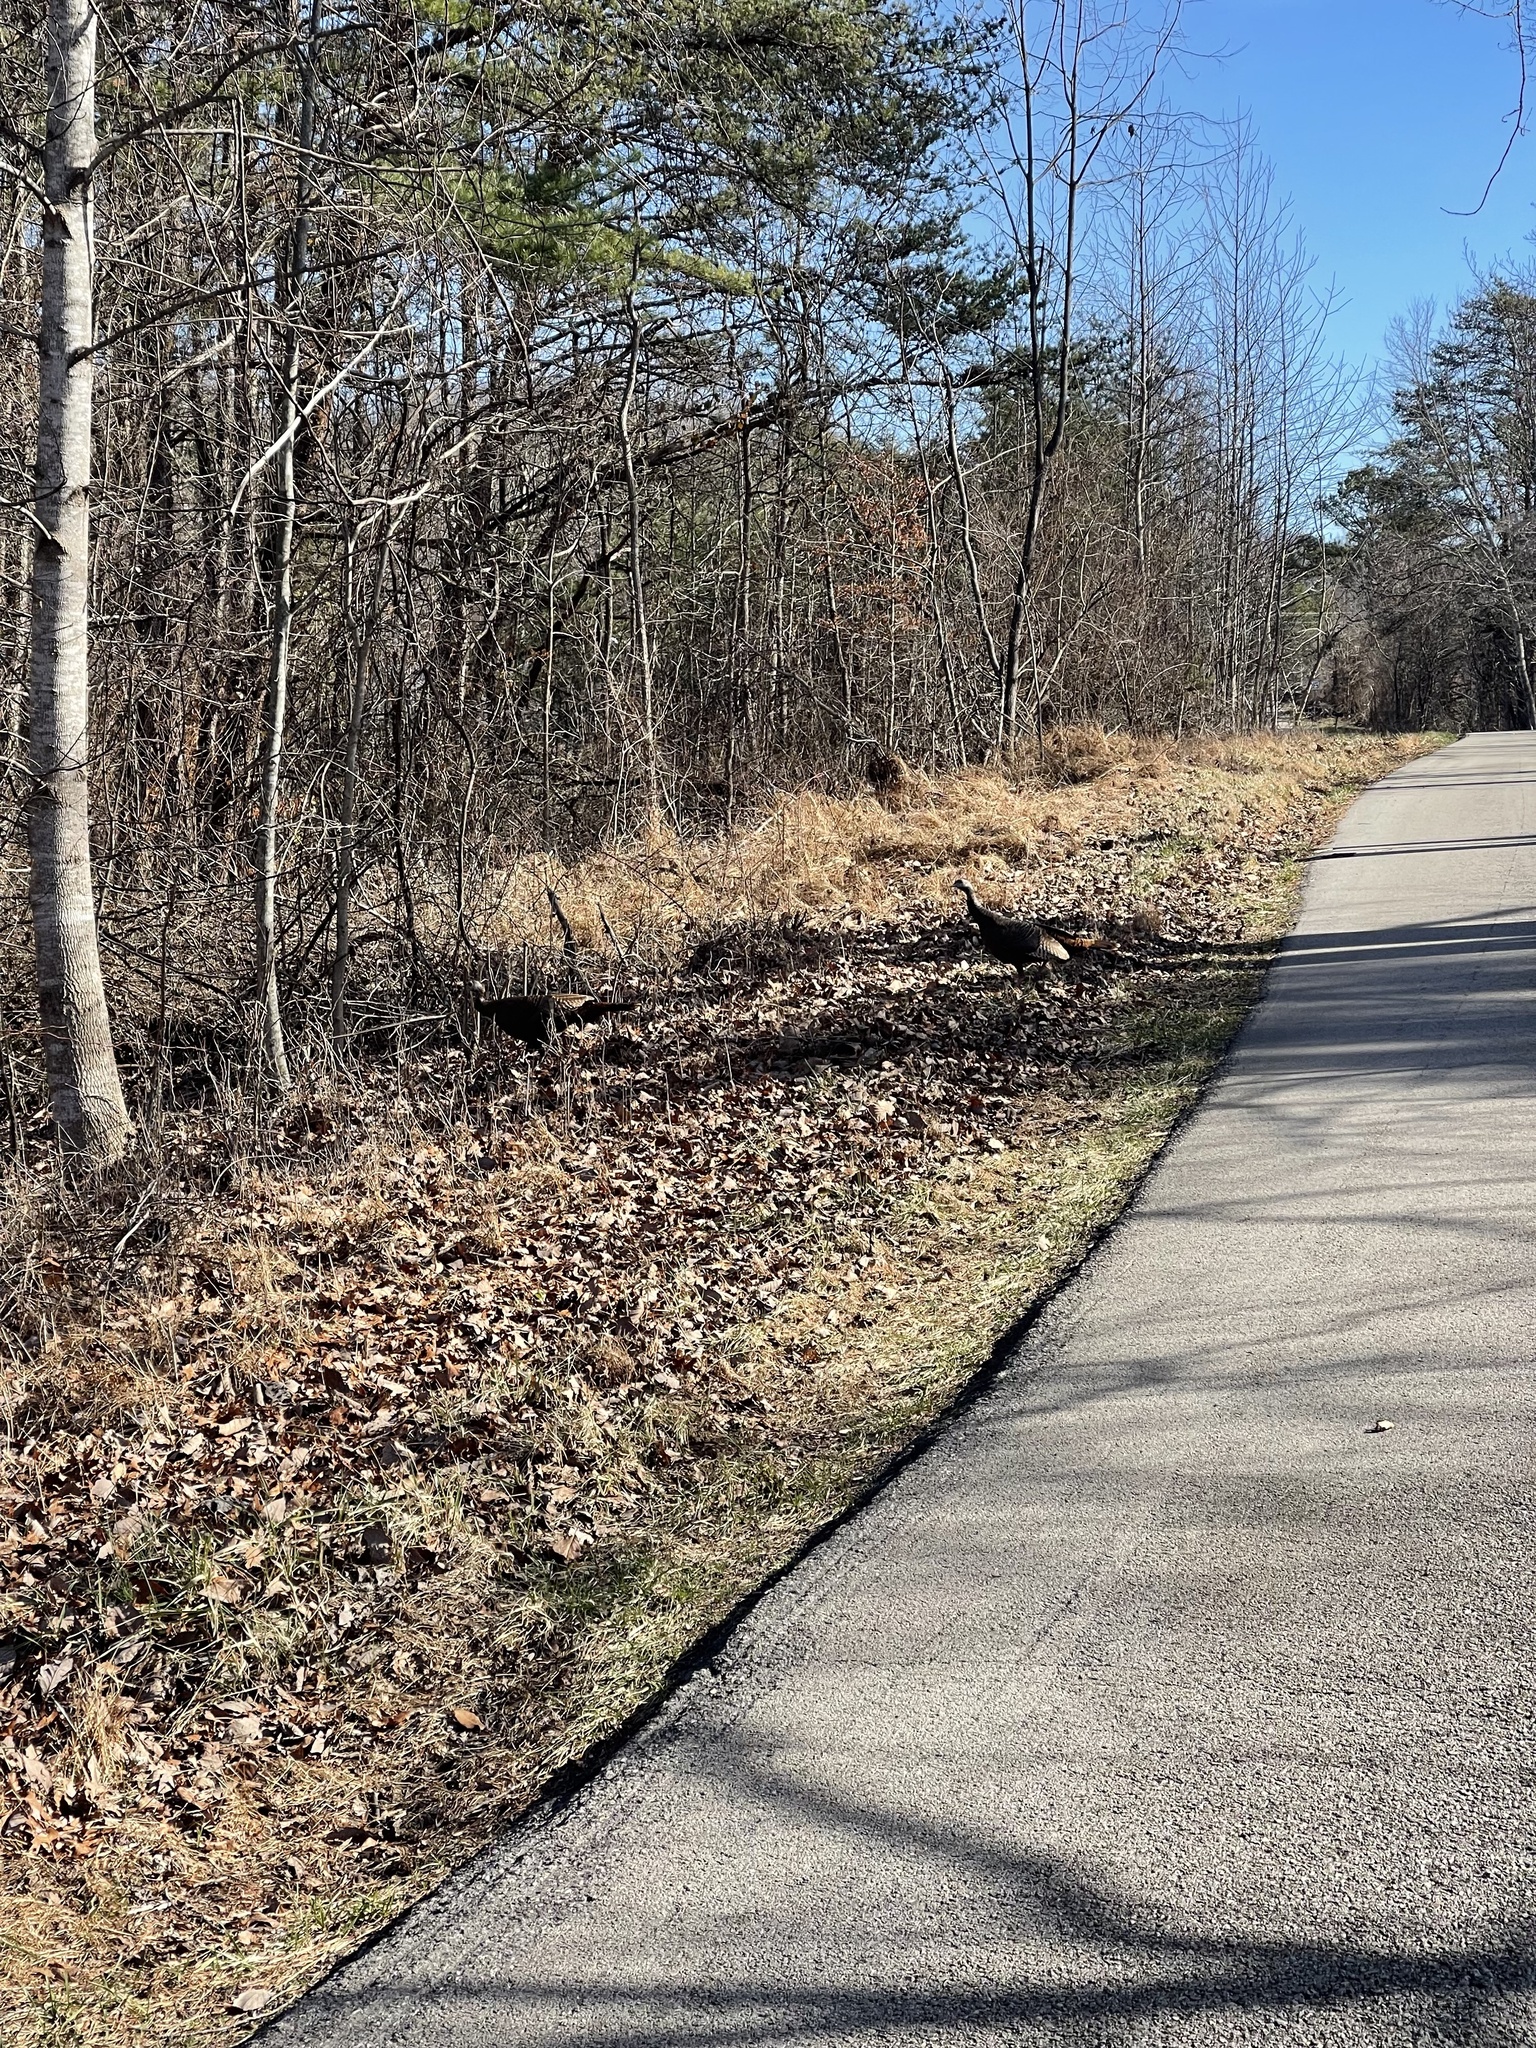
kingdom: Animalia
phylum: Chordata
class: Aves
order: Galliformes
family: Phasianidae
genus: Meleagris
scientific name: Meleagris gallopavo
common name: Wild turkey
